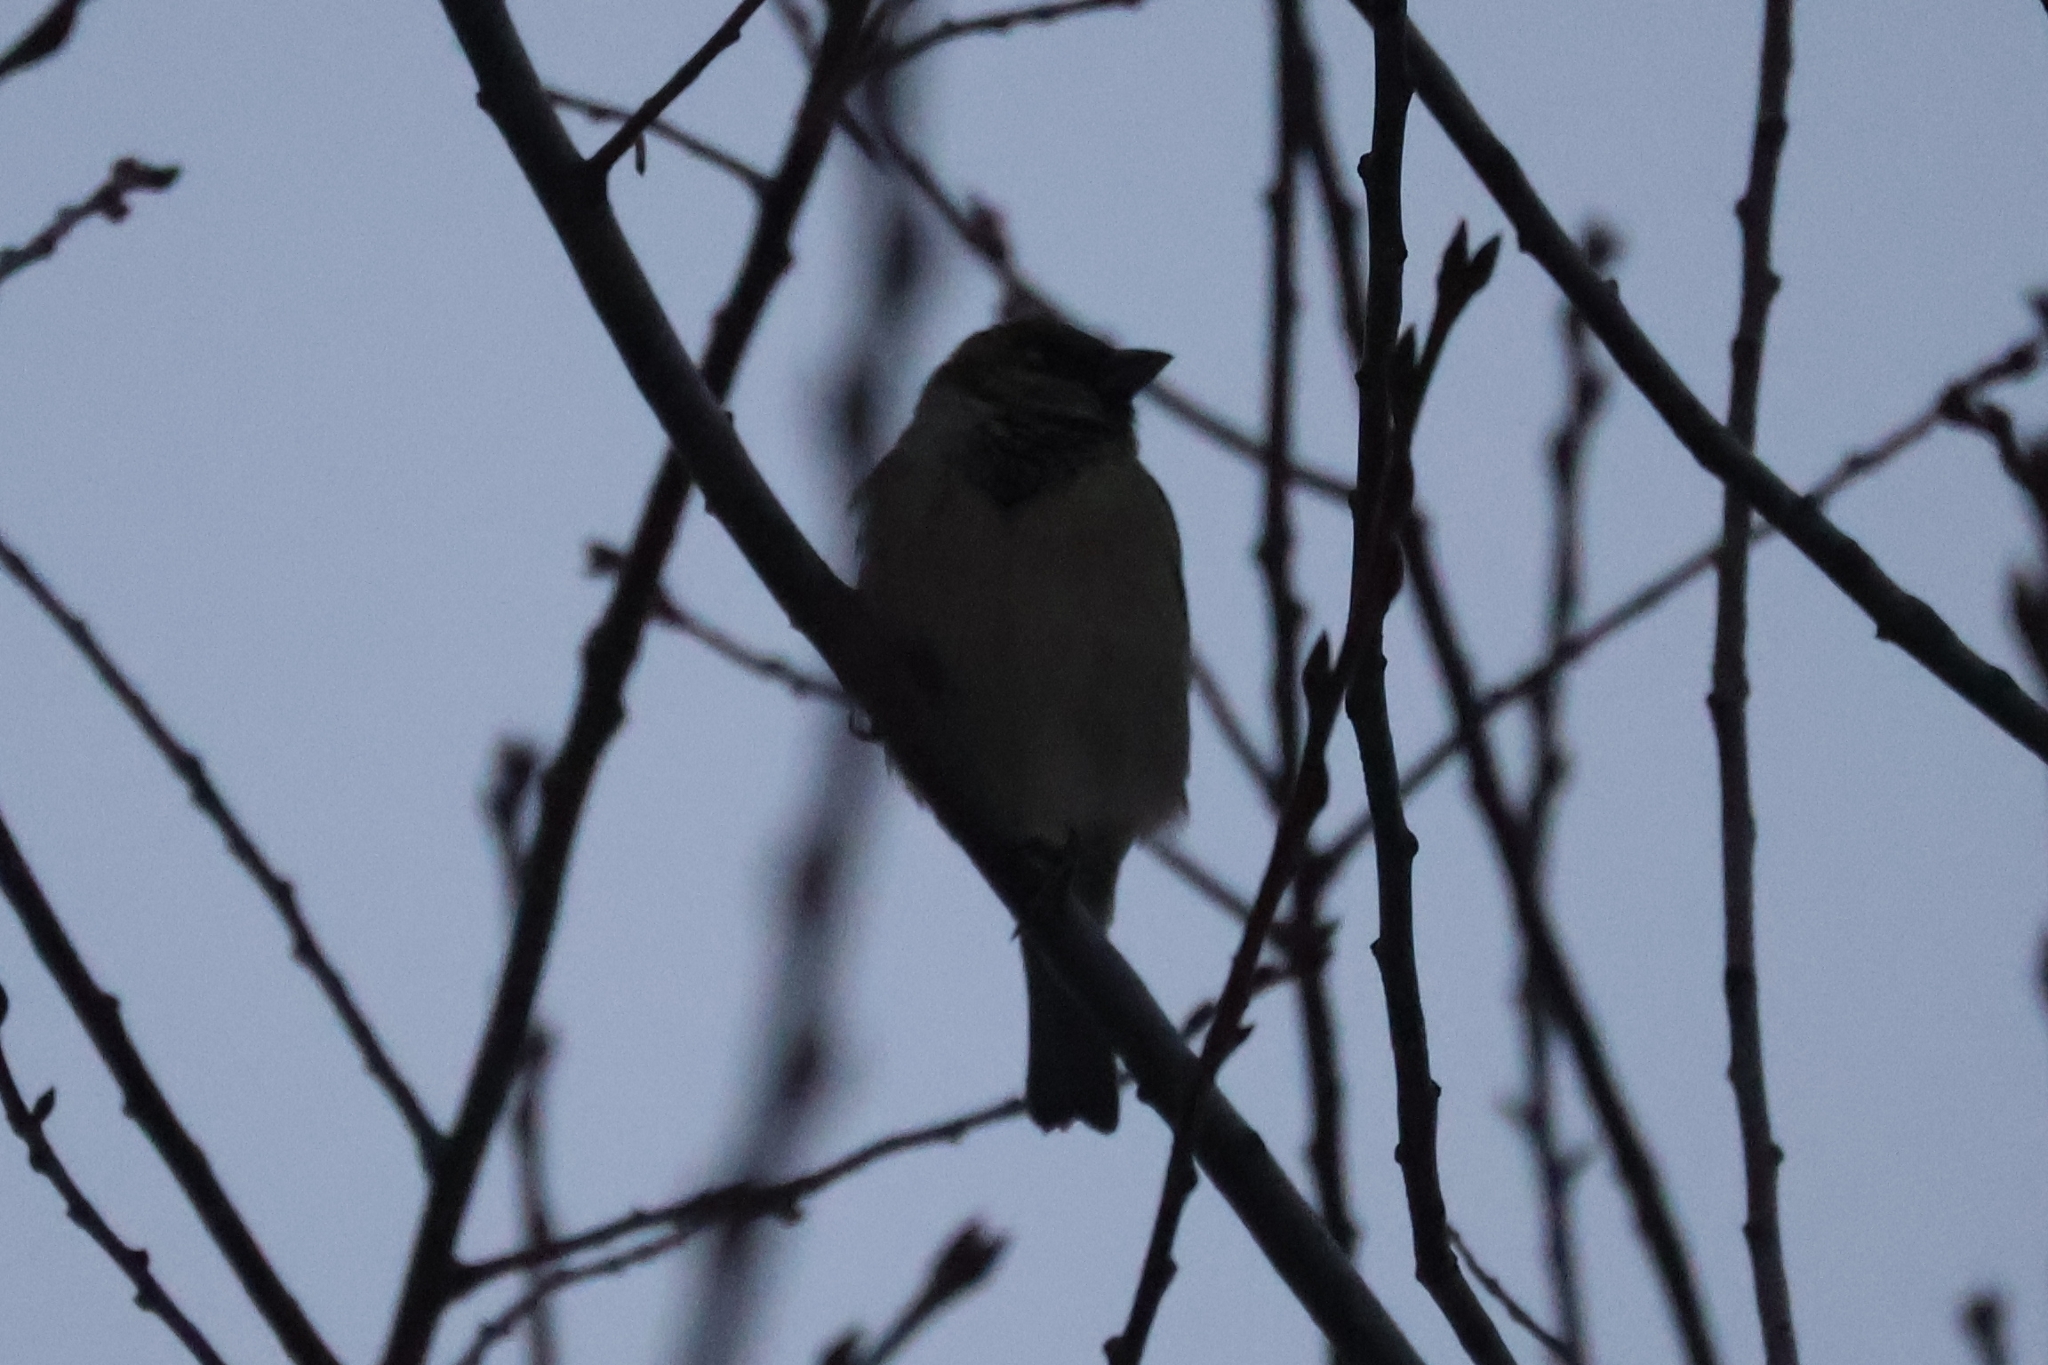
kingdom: Animalia
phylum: Chordata
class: Aves
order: Passeriformes
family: Passeridae
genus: Passer
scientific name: Passer domesticus
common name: House sparrow
